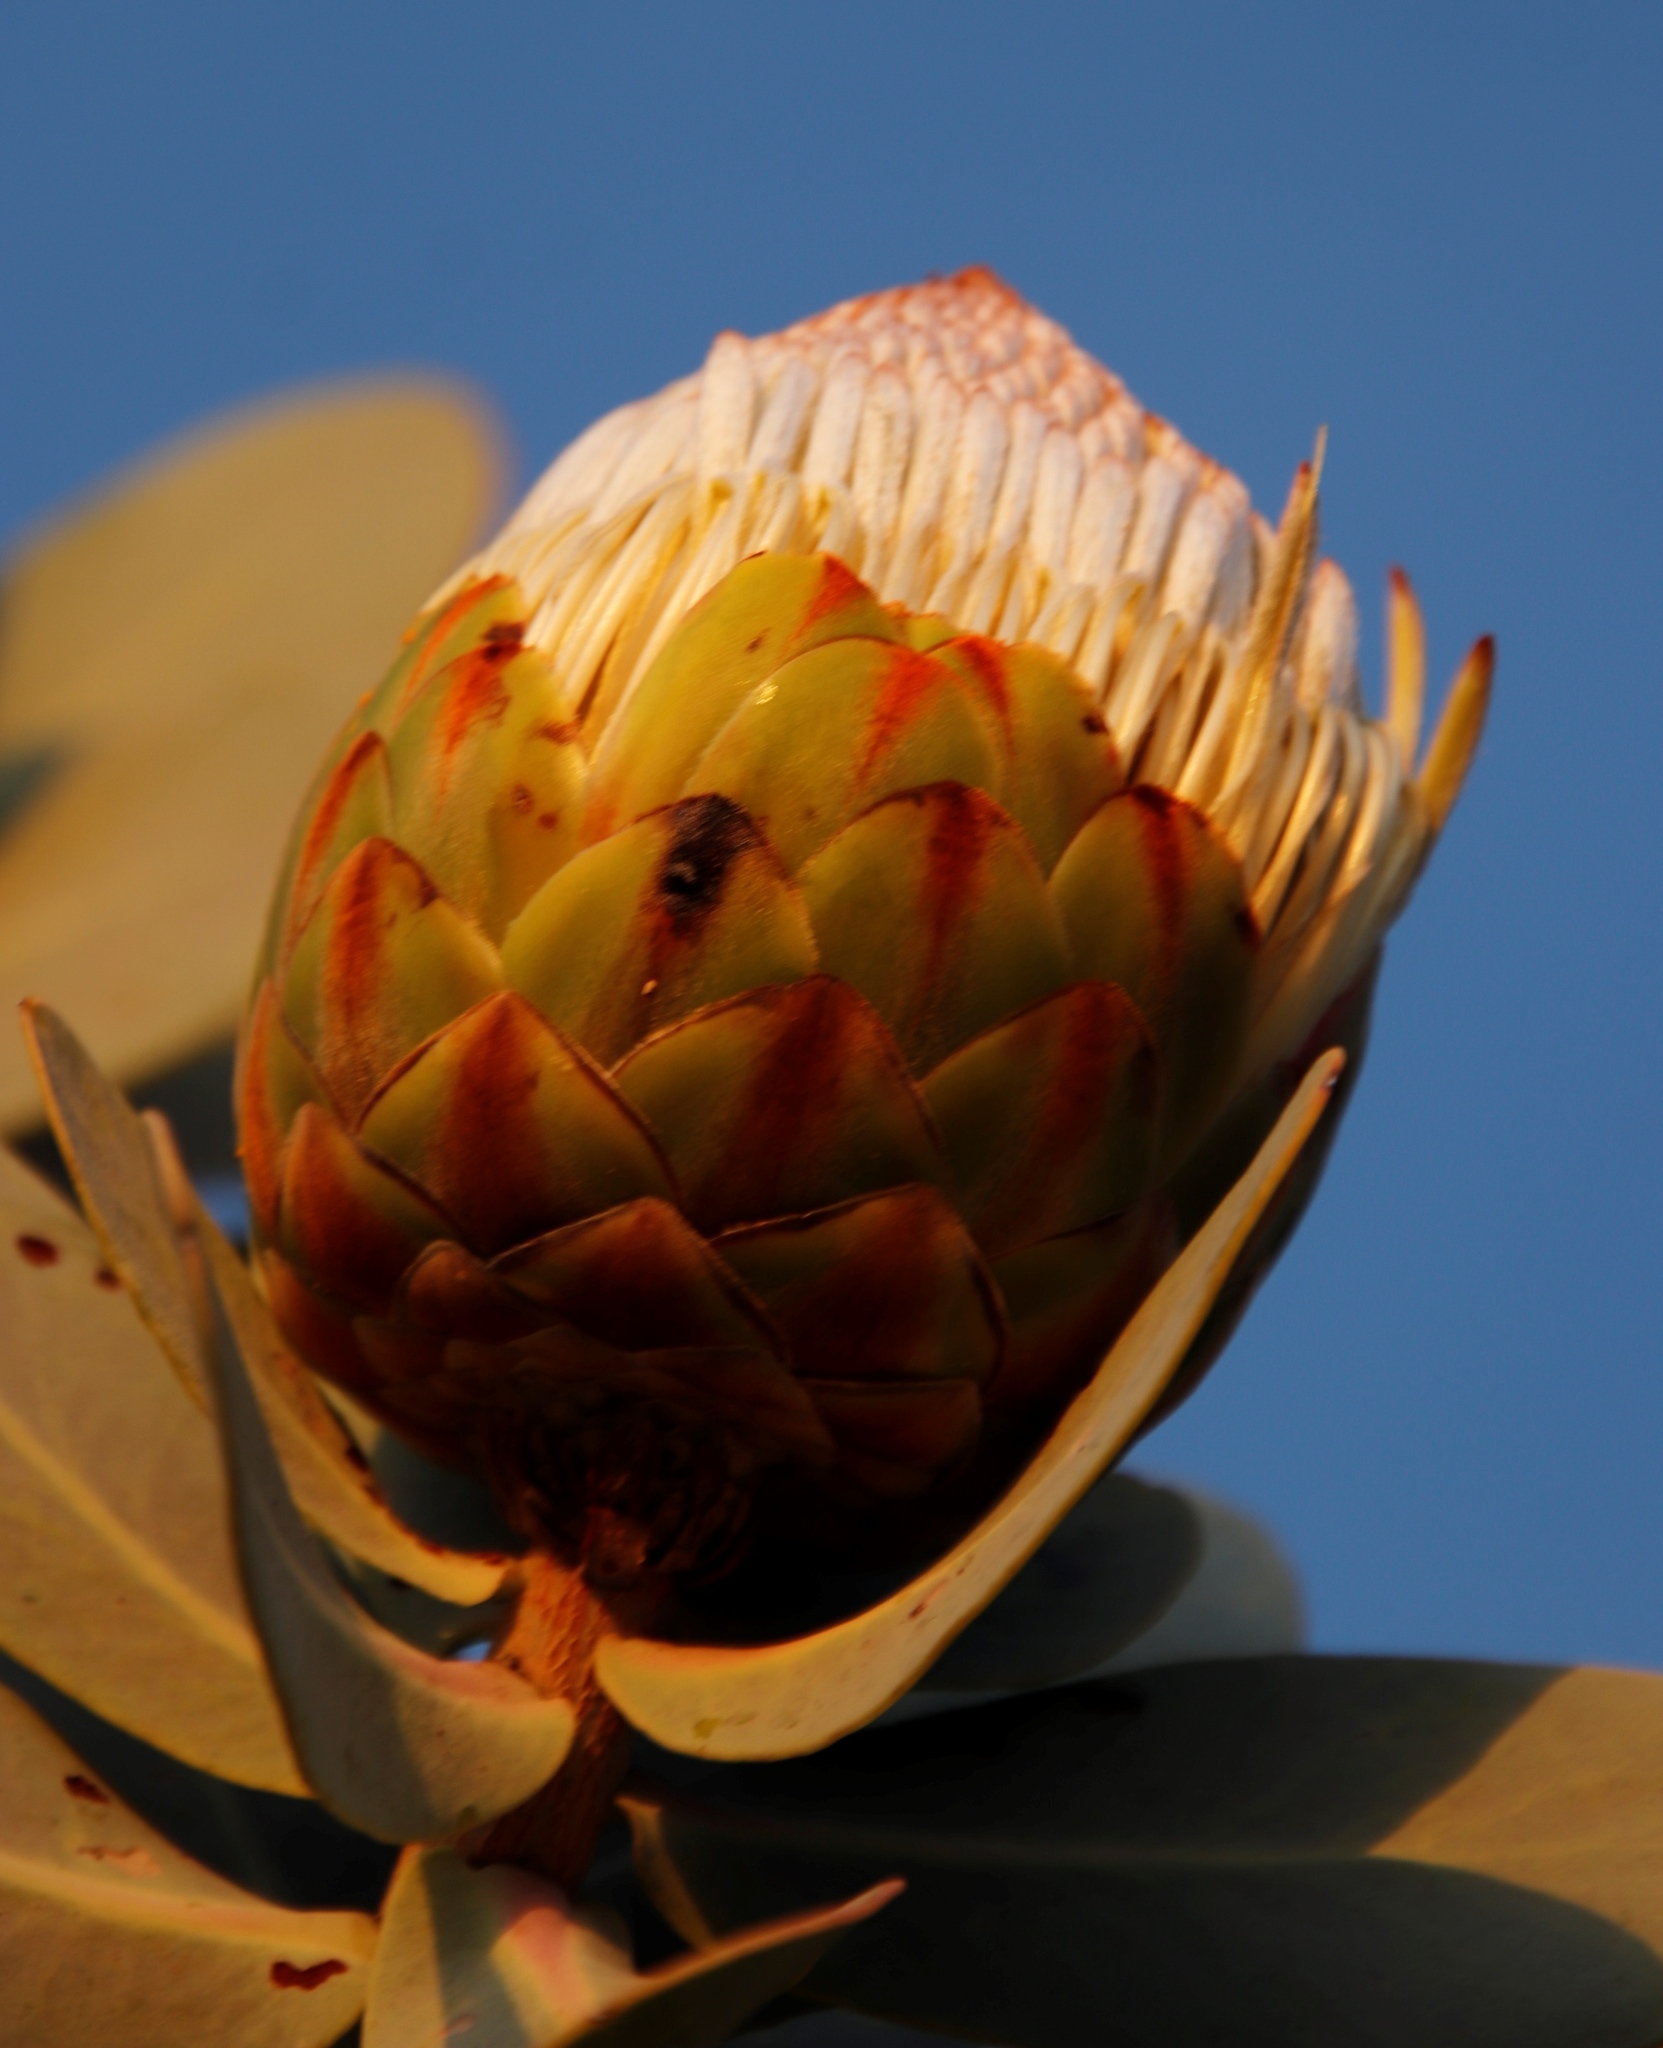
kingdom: Plantae
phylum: Tracheophyta
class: Magnoliopsida
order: Proteales
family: Proteaceae
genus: Protea
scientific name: Protea nitida
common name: Tree protea
